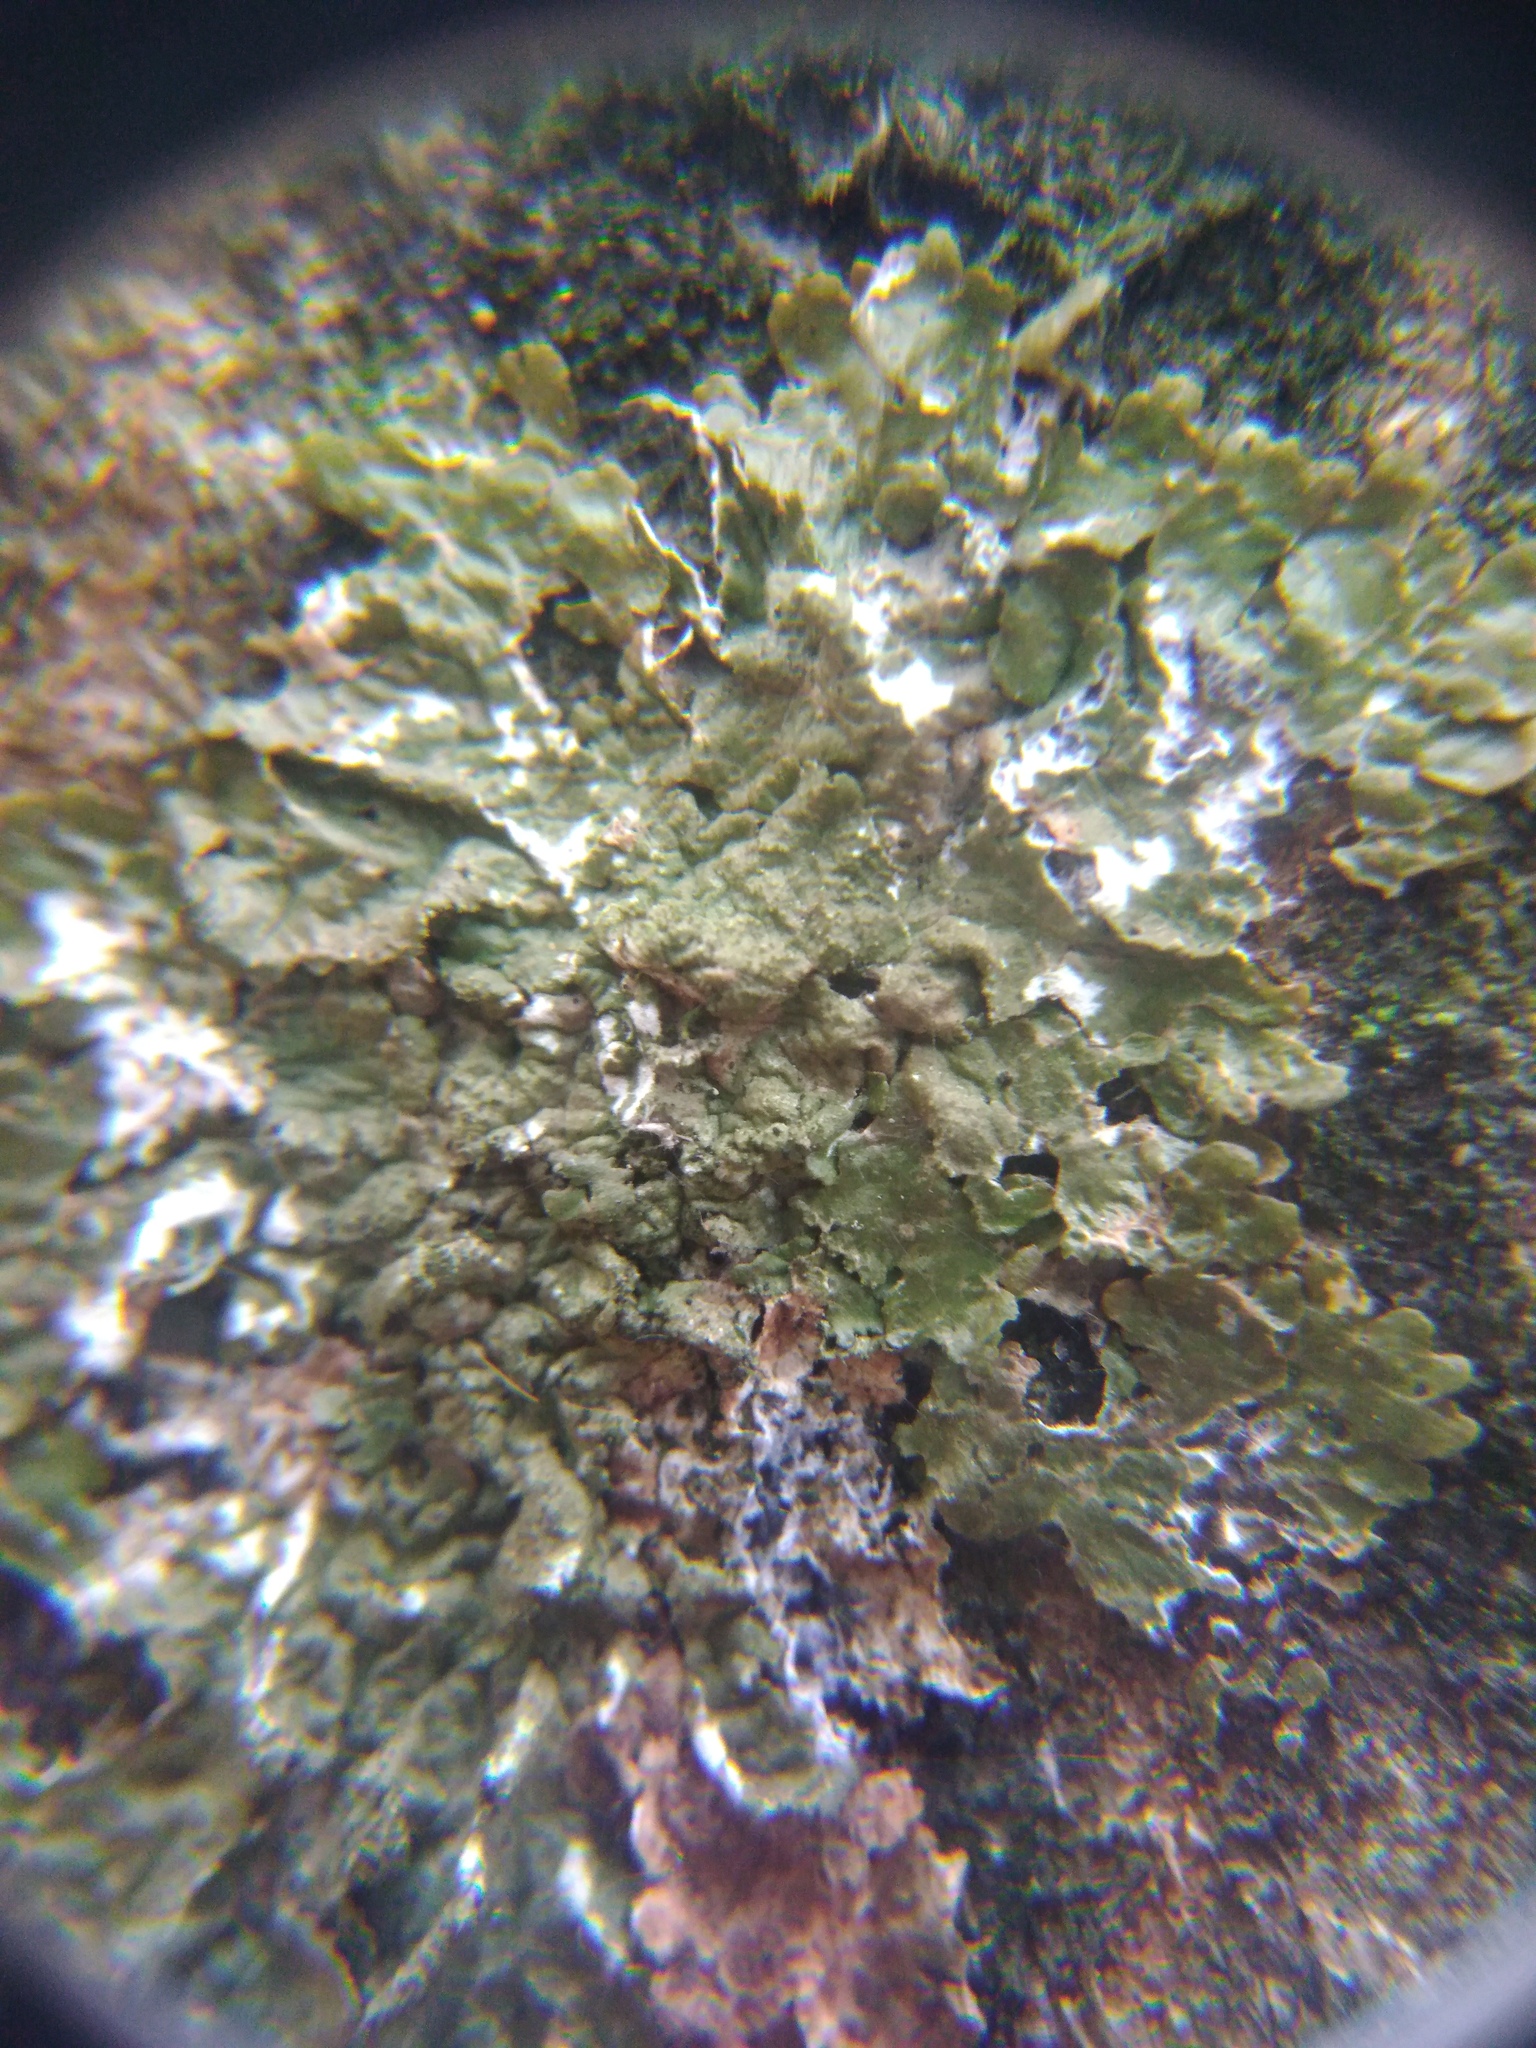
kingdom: Fungi
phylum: Ascomycota
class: Lecanoromycetes
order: Lecanorales
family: Parmeliaceae
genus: Melanelixia
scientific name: Melanelixia glabratula
